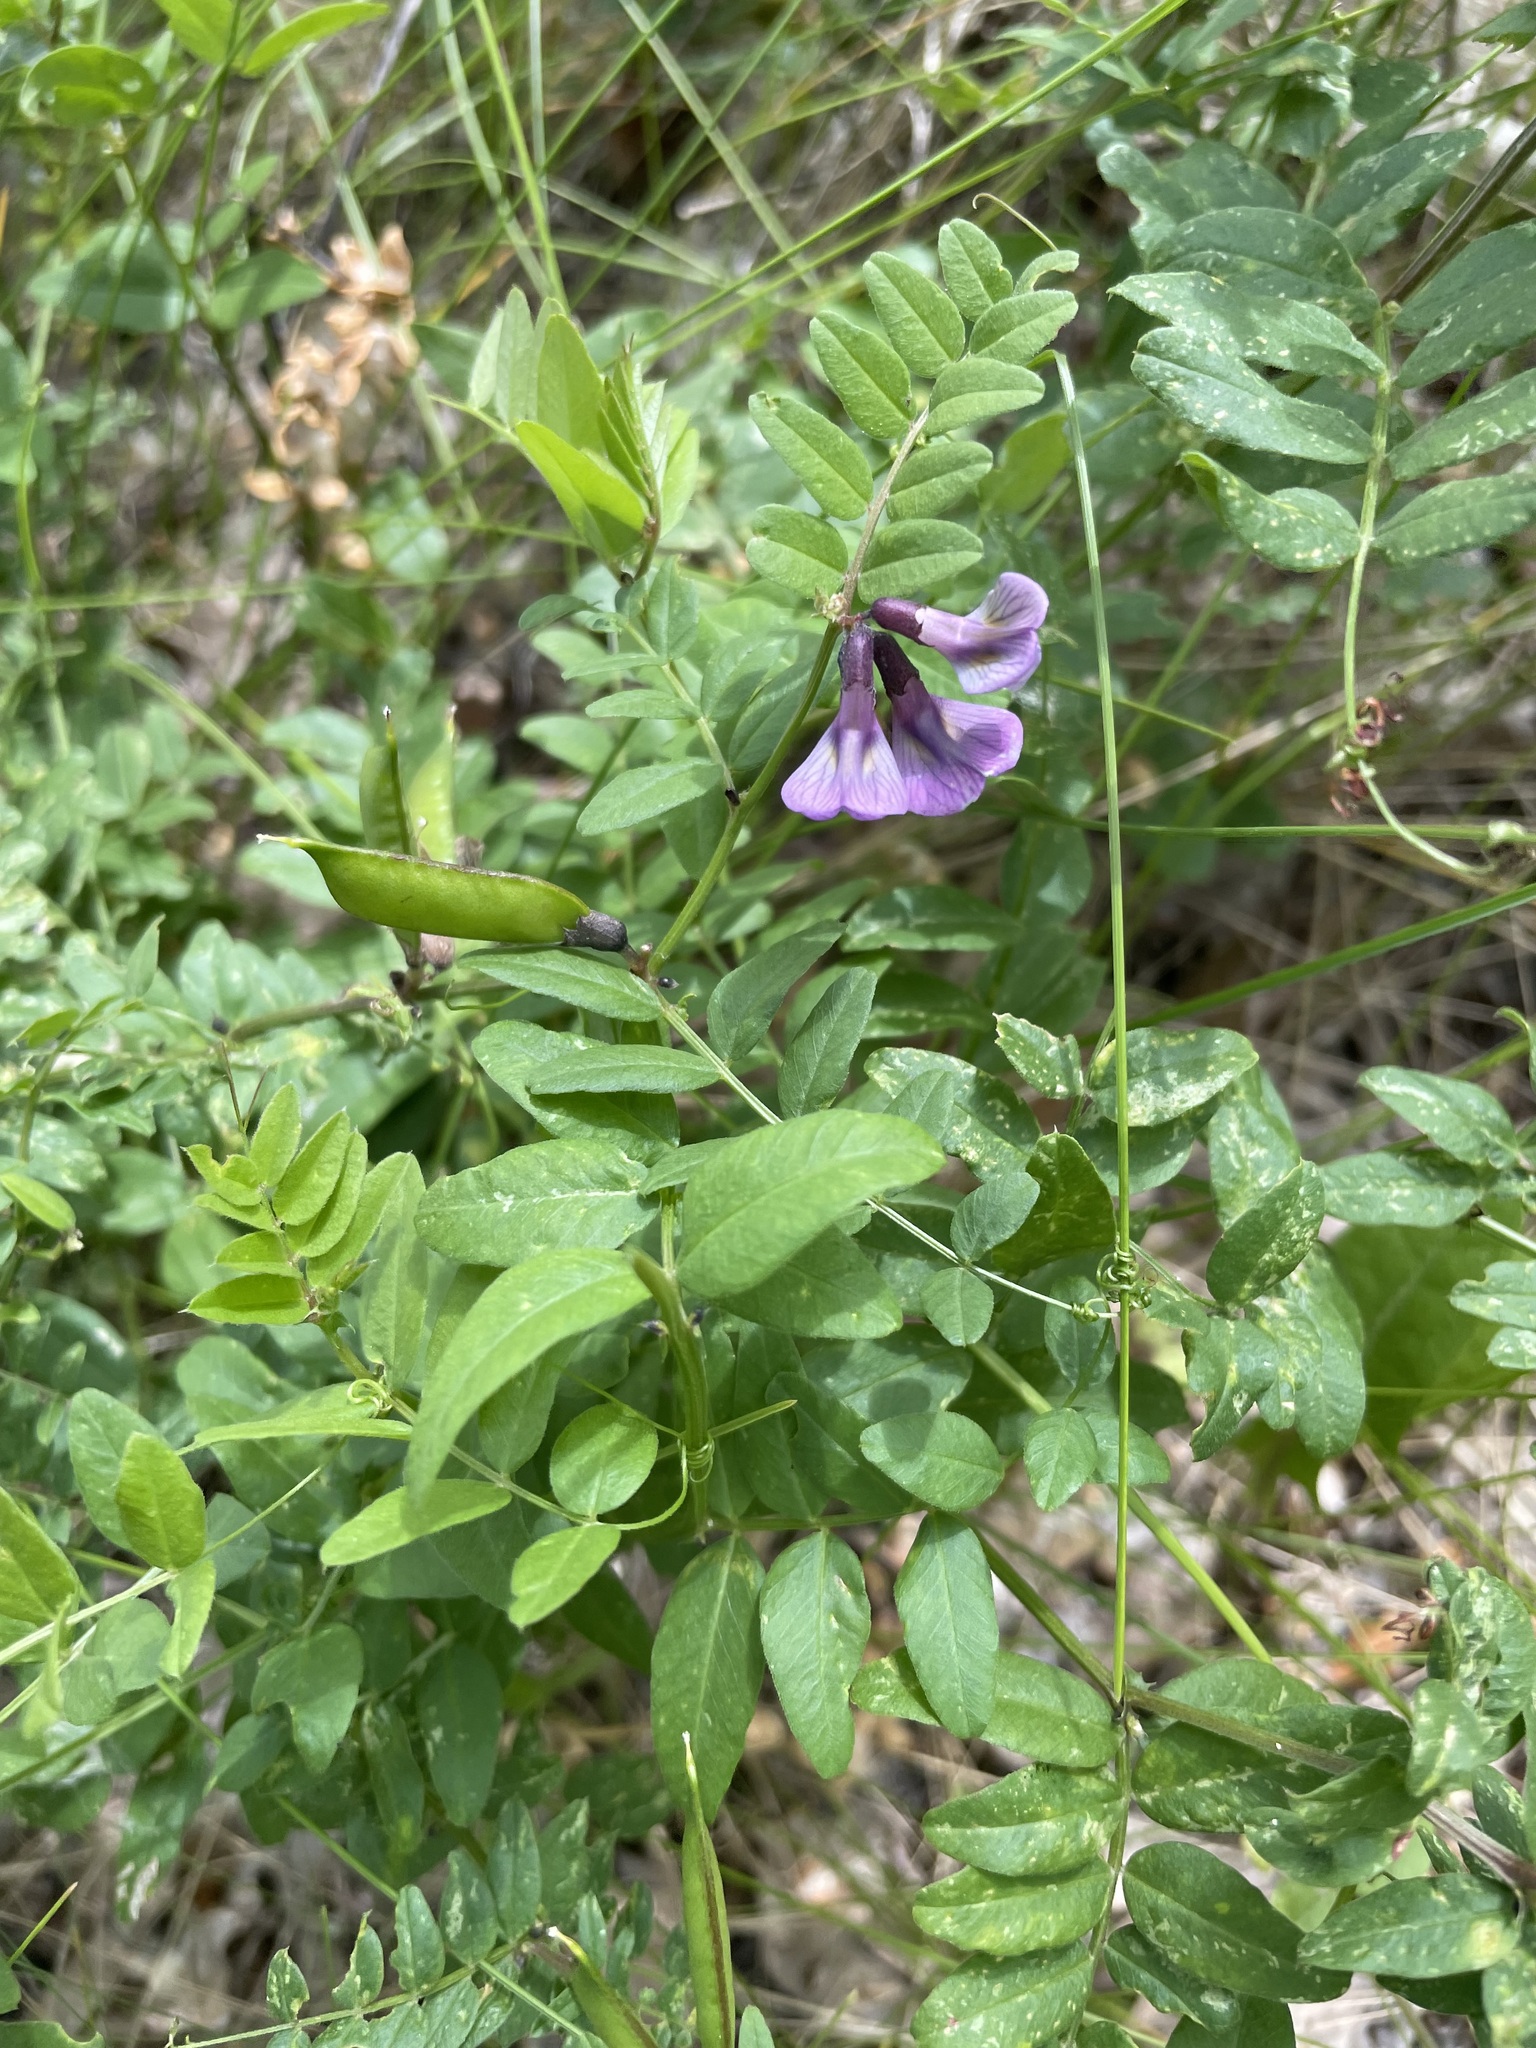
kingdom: Plantae
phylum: Tracheophyta
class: Magnoliopsida
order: Fabales
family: Fabaceae
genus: Vicia
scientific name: Vicia sepium
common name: Bush vetch
